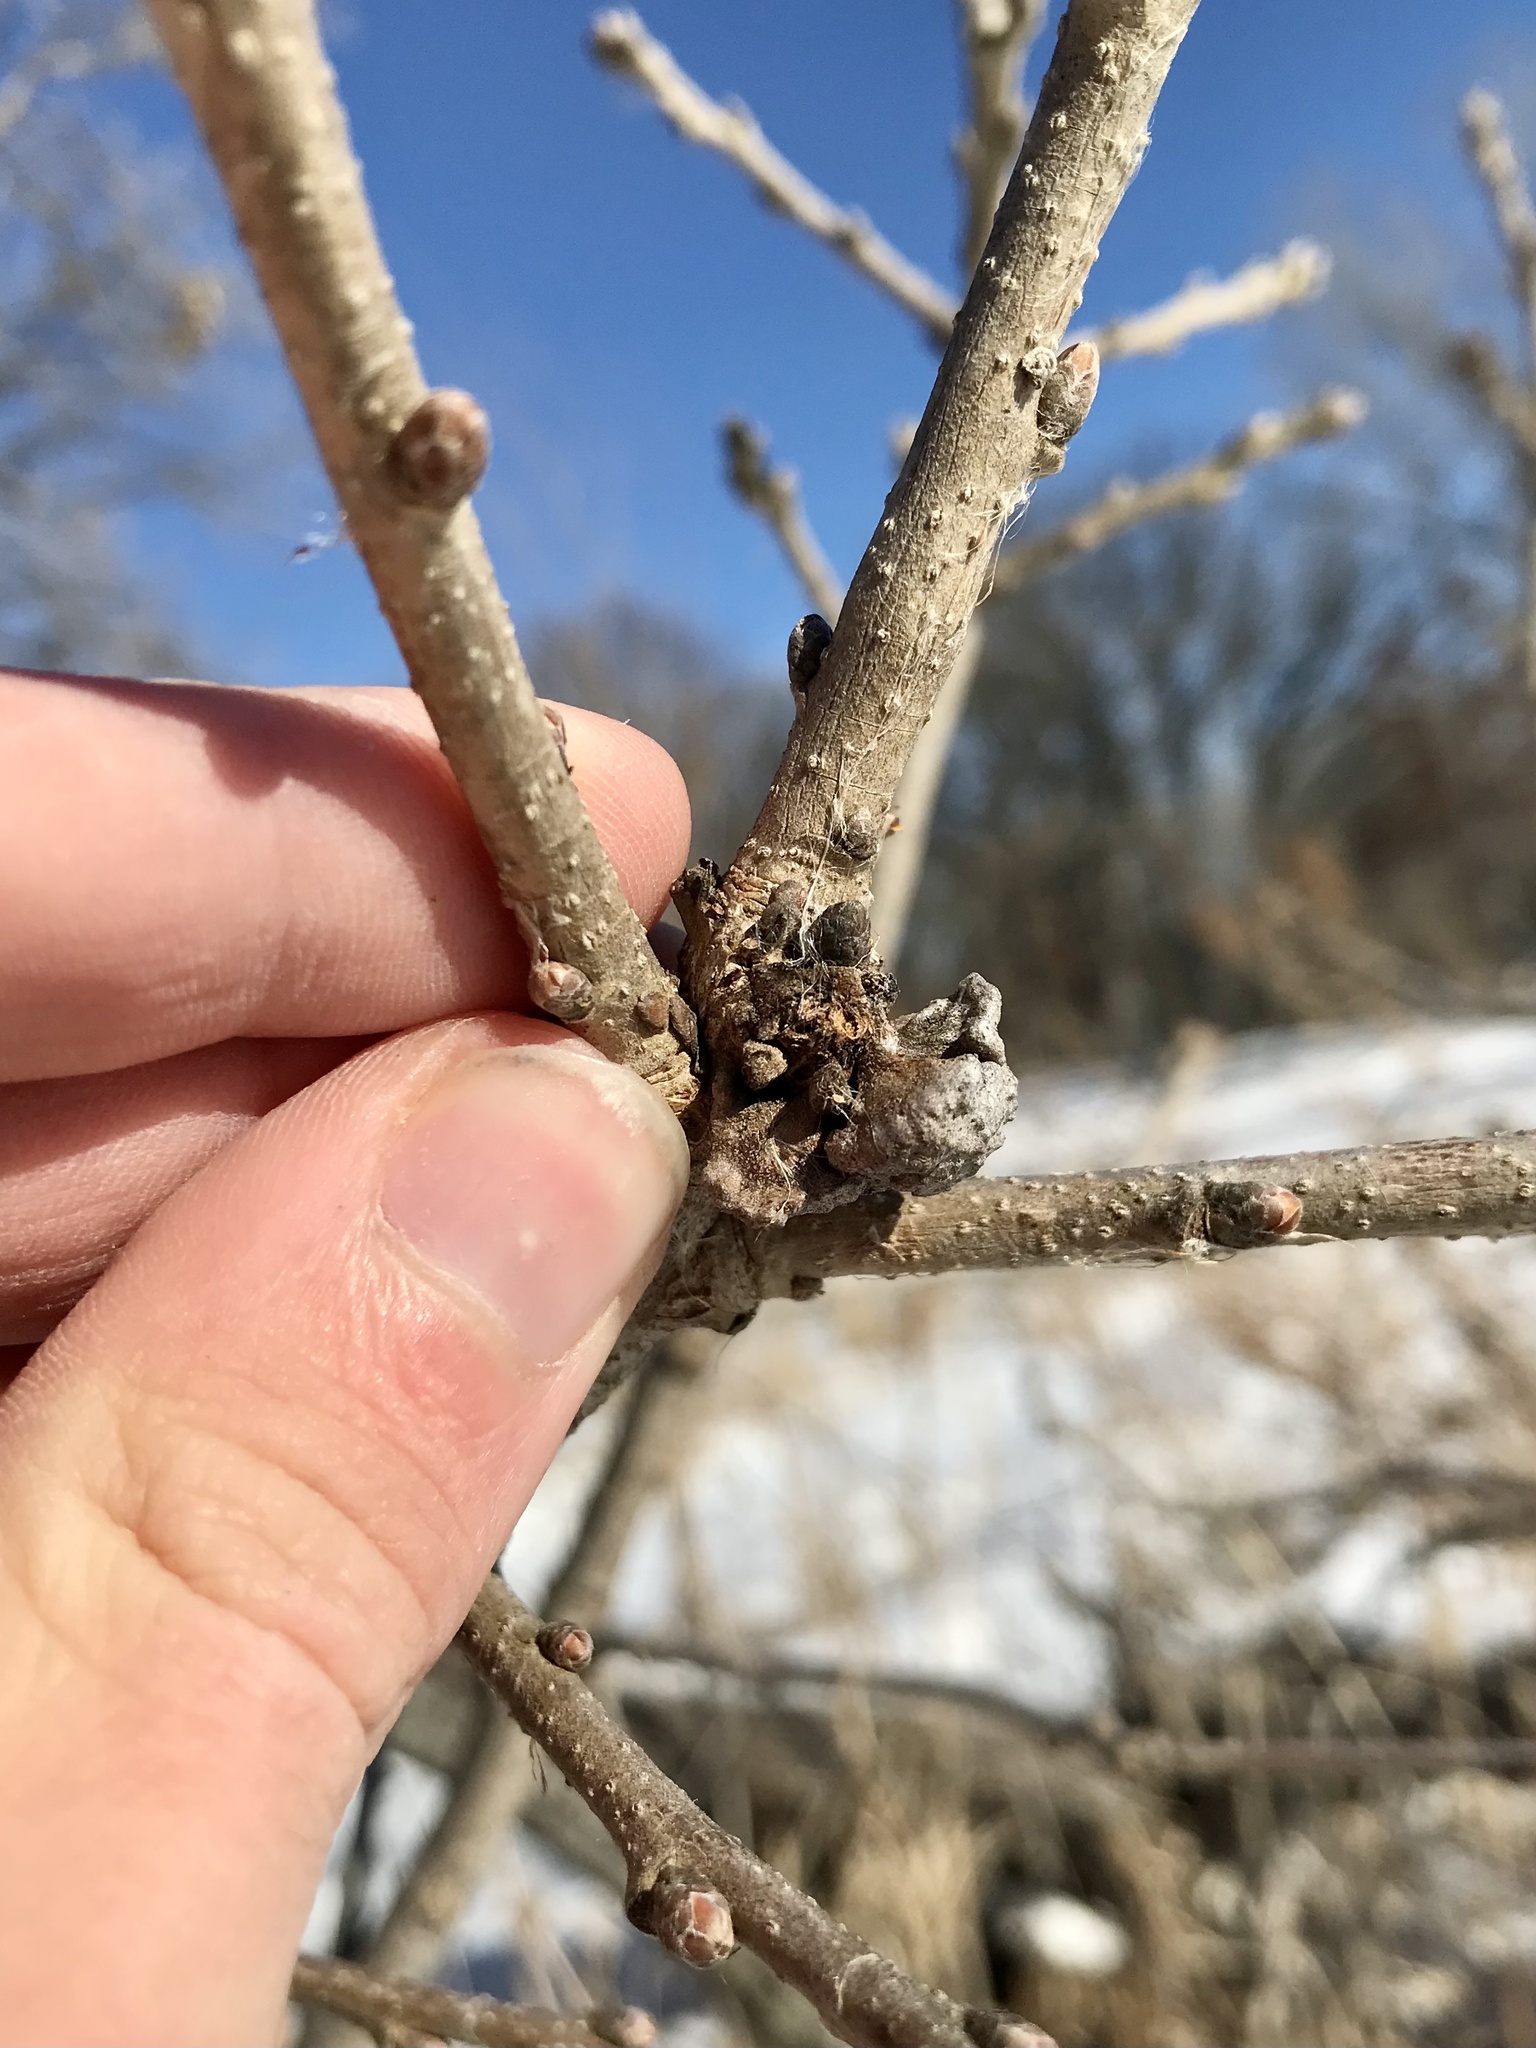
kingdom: Animalia
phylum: Arthropoda
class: Insecta
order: Hymenoptera
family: Cynipidae
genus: Andricus
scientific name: Andricus
